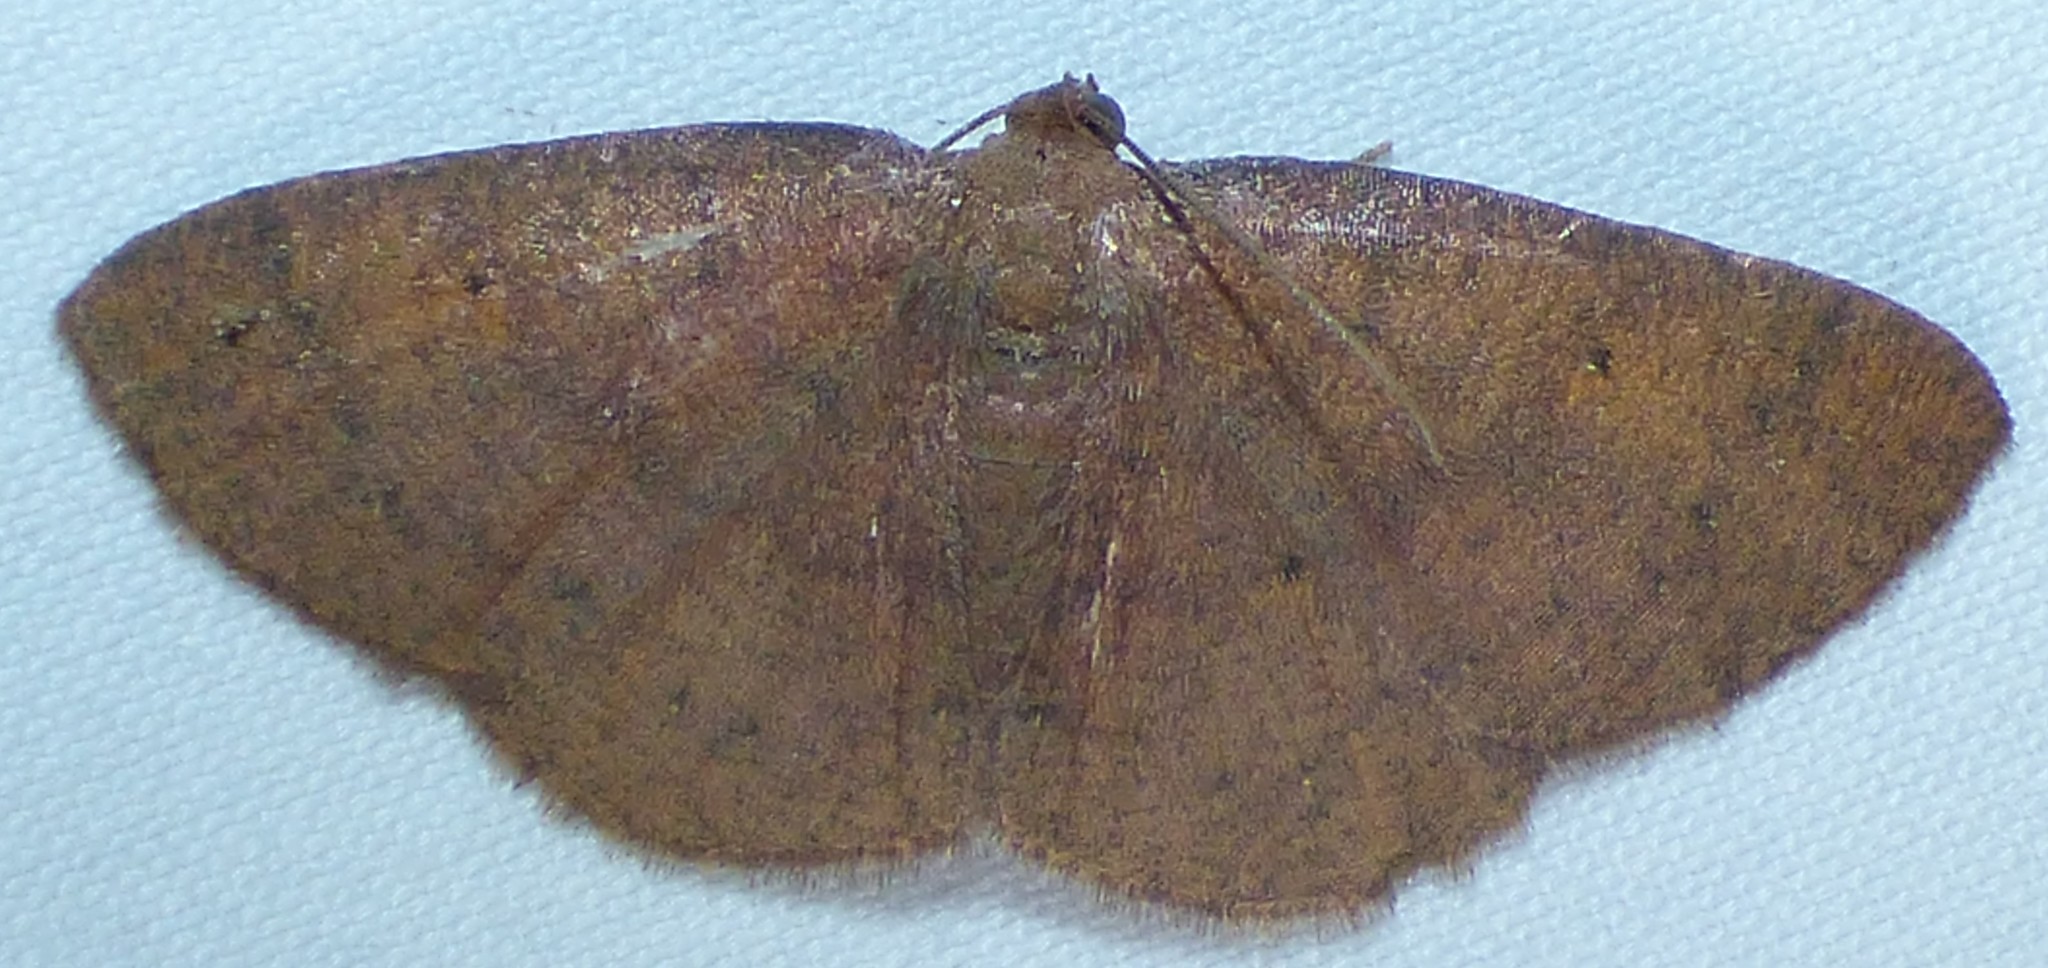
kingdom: Animalia
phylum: Arthropoda
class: Insecta
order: Lepidoptera
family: Geometridae
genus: Ilexia
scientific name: Ilexia intractata
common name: Black-dotted ruddy moth
